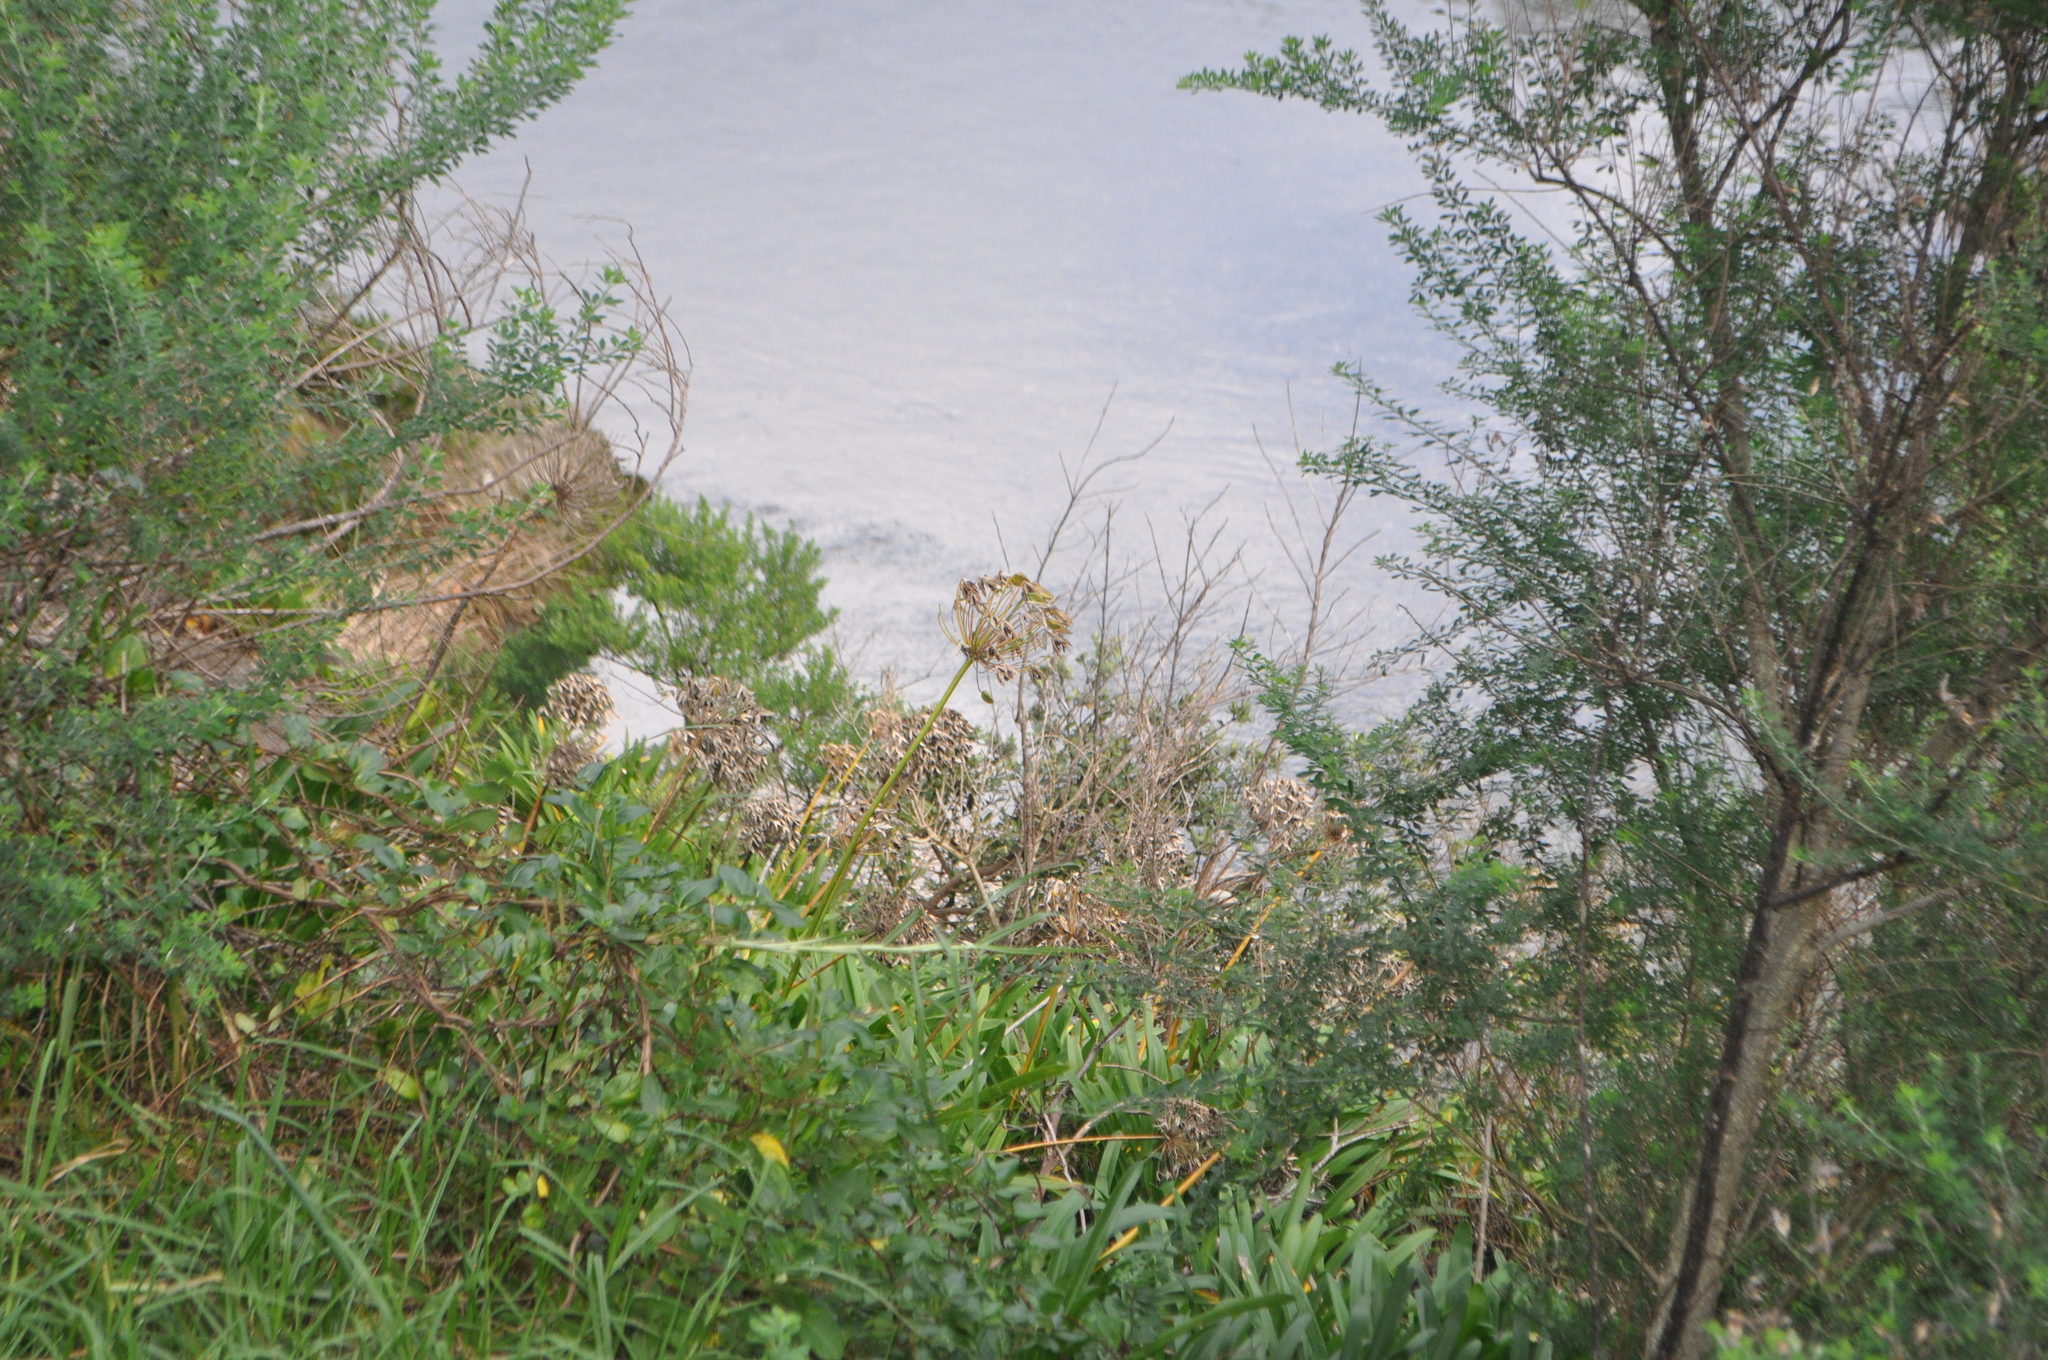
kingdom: Plantae
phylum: Tracheophyta
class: Liliopsida
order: Asparagales
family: Amaryllidaceae
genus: Agapanthus
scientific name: Agapanthus praecox
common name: African-lily
